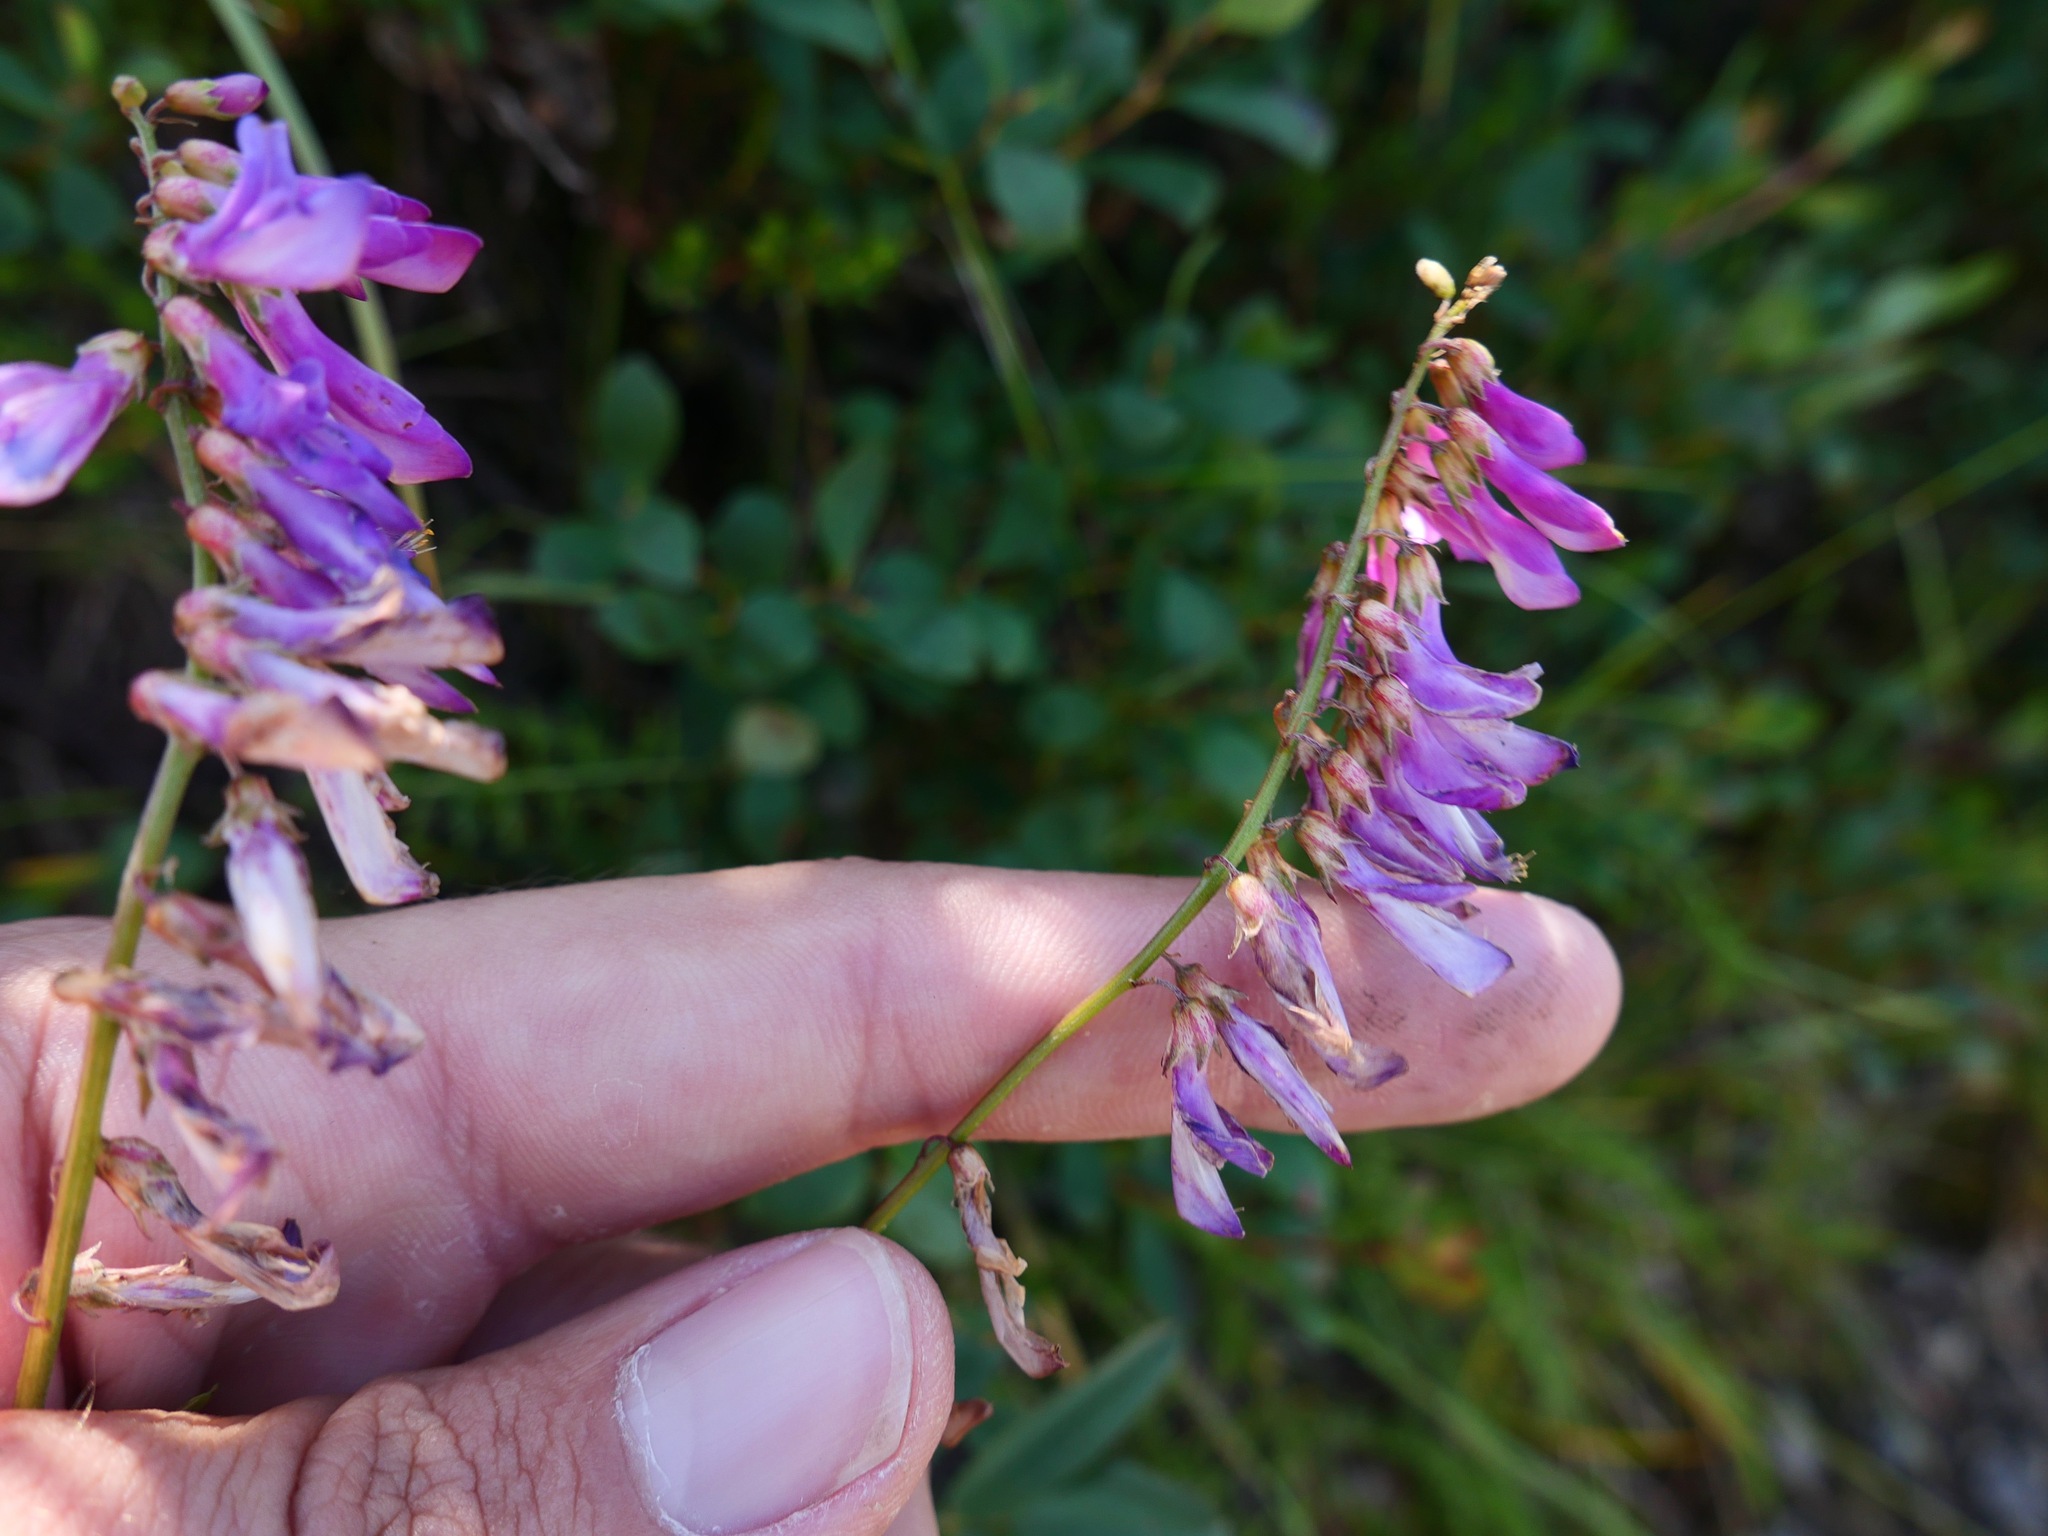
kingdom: Plantae
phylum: Tracheophyta
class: Magnoliopsida
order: Fabales
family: Fabaceae
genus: Hedysarum
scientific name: Hedysarum alpinum
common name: Alpine sweet-vetch
